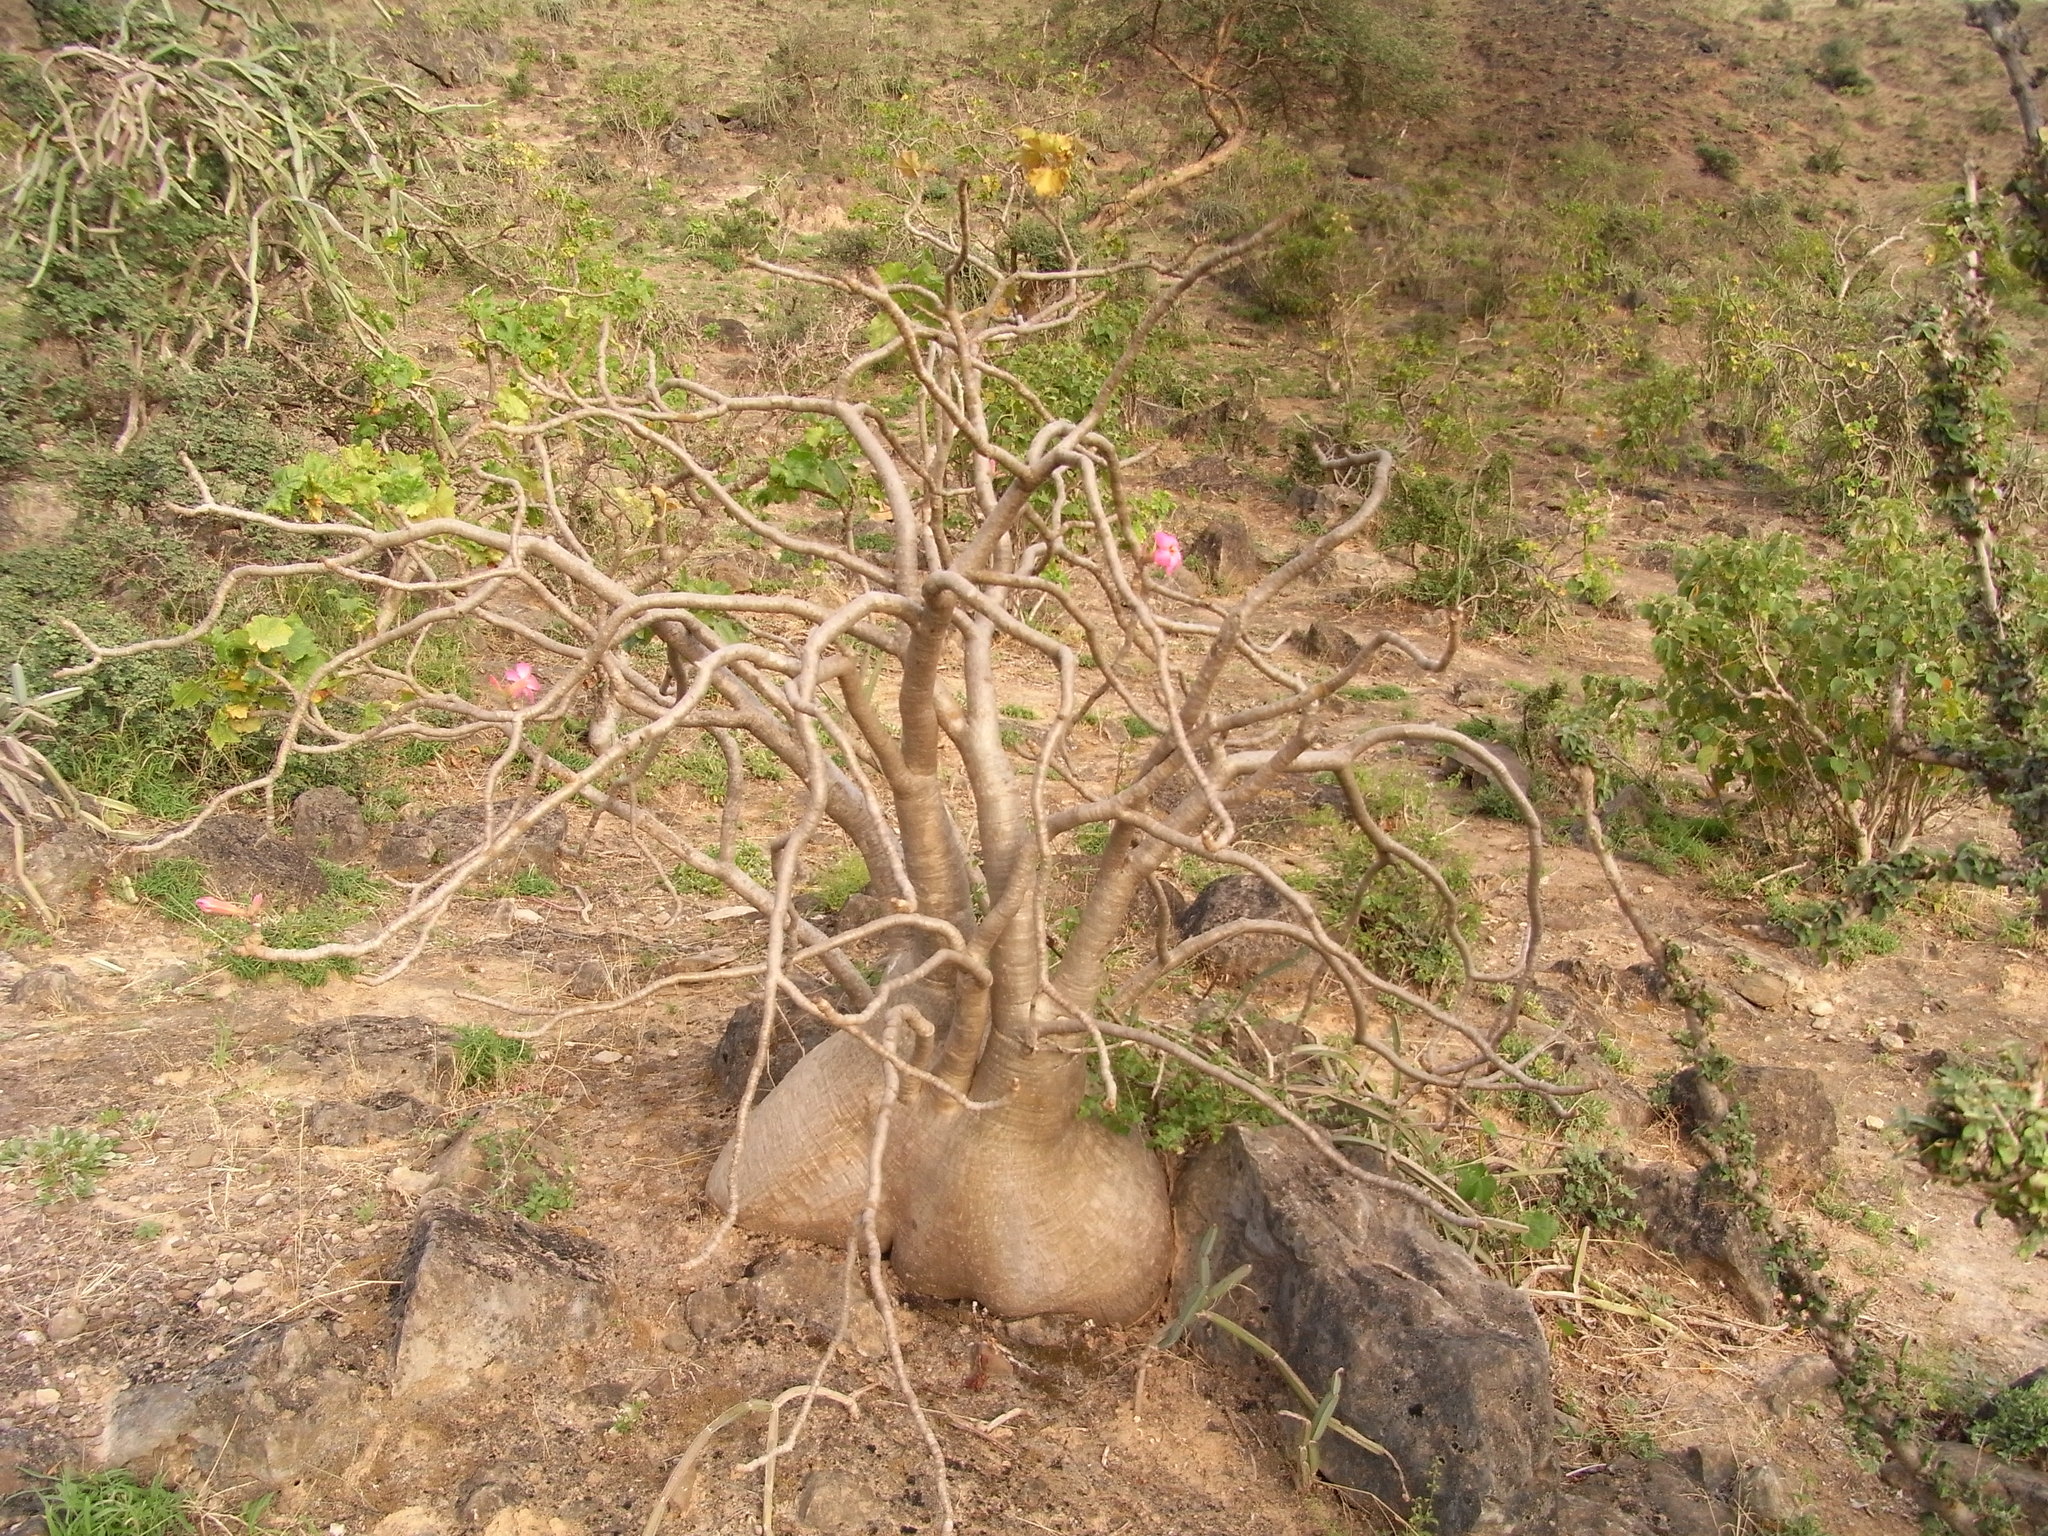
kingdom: Plantae
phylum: Tracheophyta
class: Magnoliopsida
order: Gentianales
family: Apocynaceae
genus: Adenium
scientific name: Adenium obesum
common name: Desert-rose
